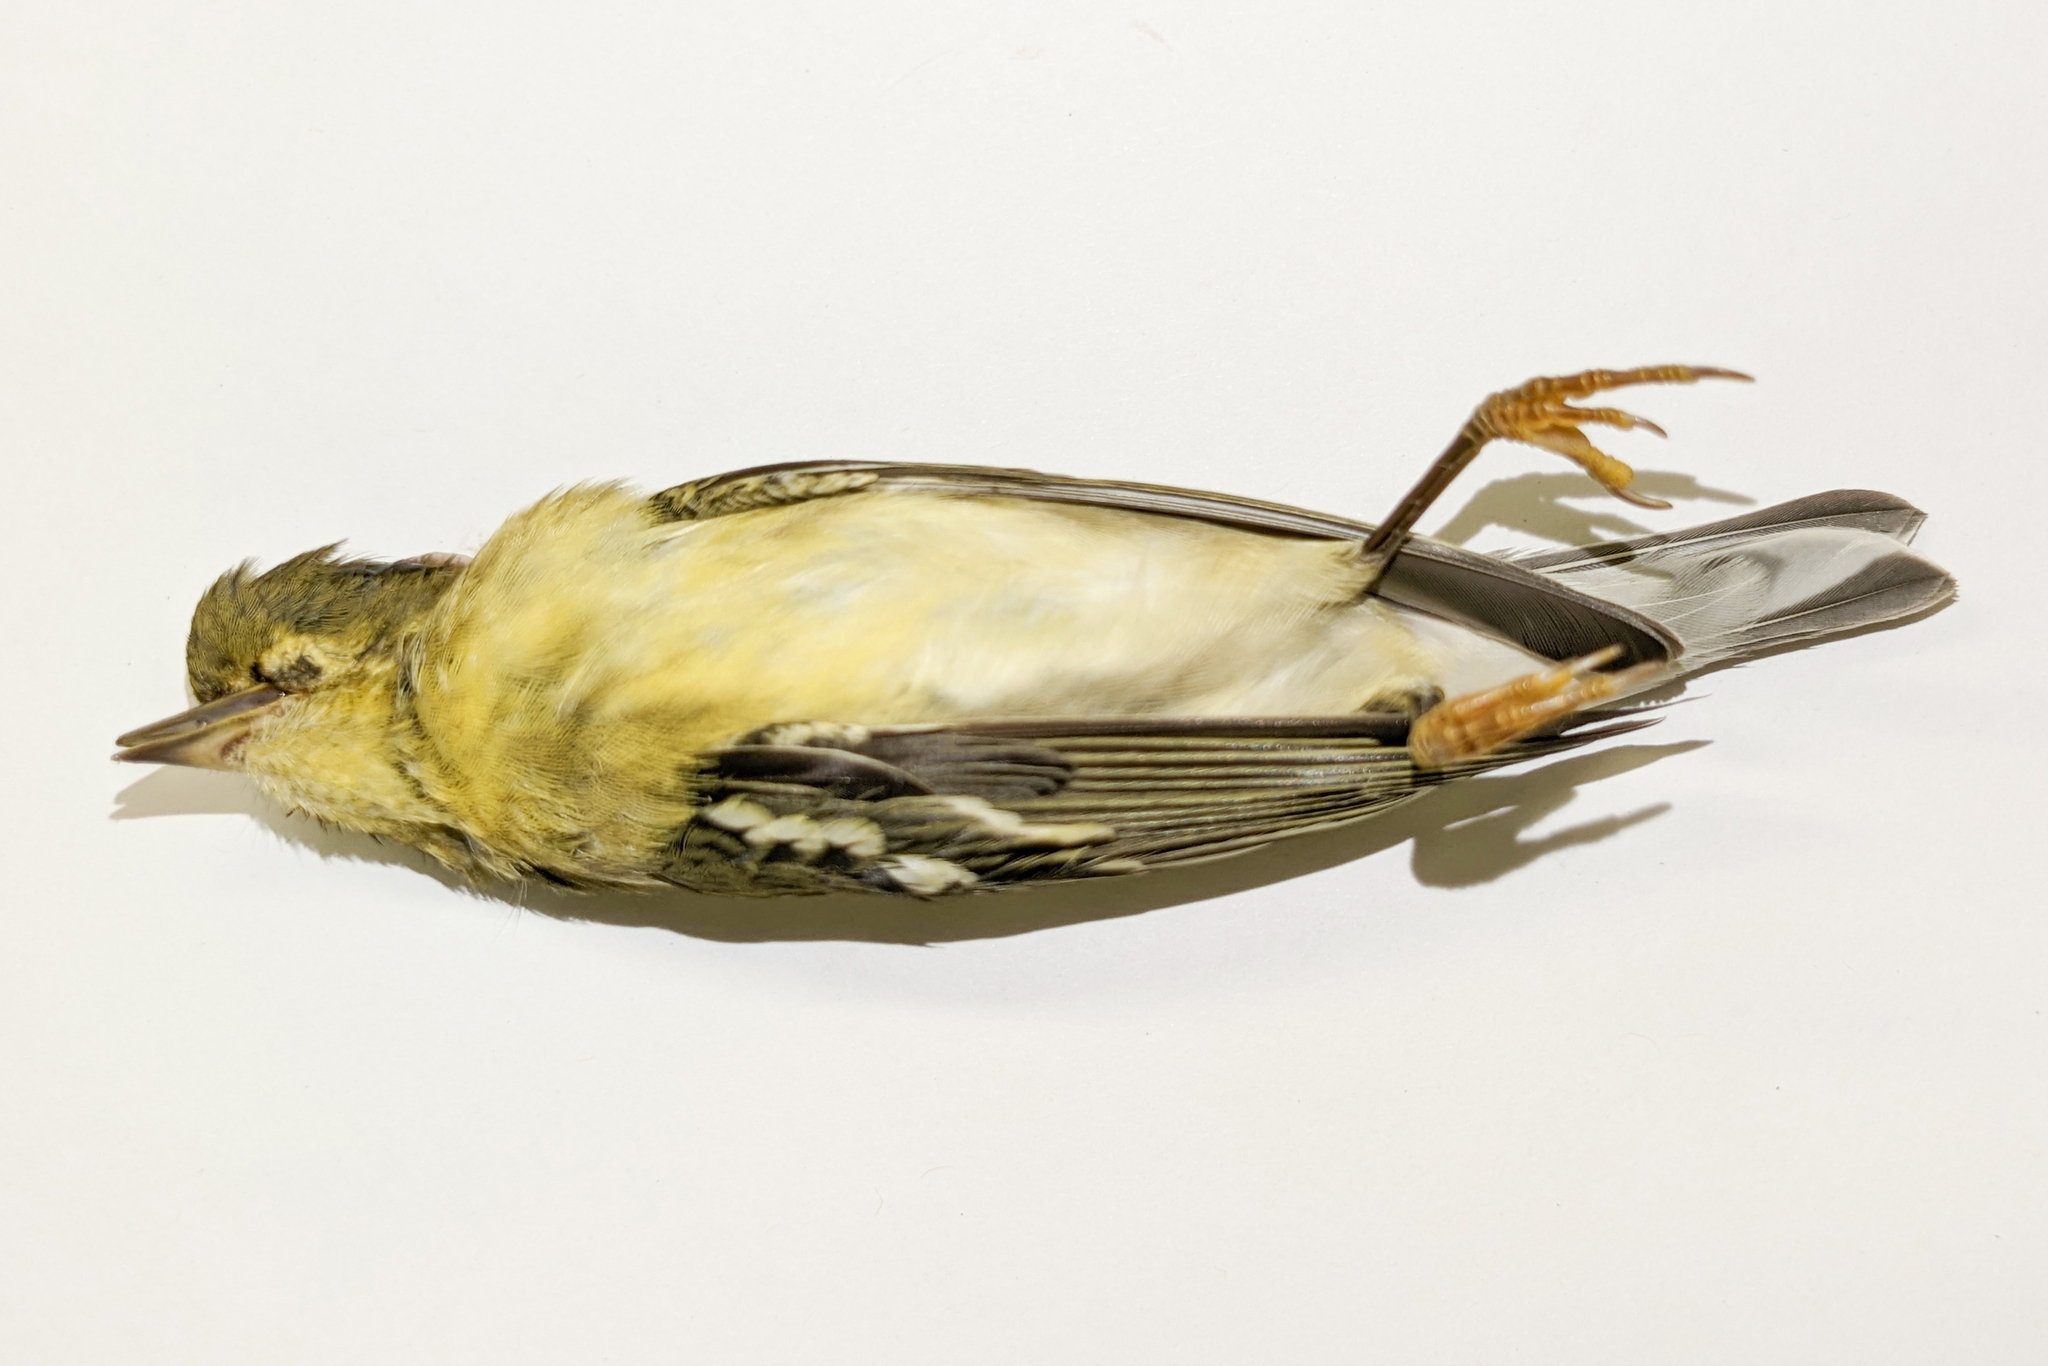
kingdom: Animalia
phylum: Chordata
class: Aves
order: Passeriformes
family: Parulidae
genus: Setophaga
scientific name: Setophaga striata
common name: Blackpoll warbler
